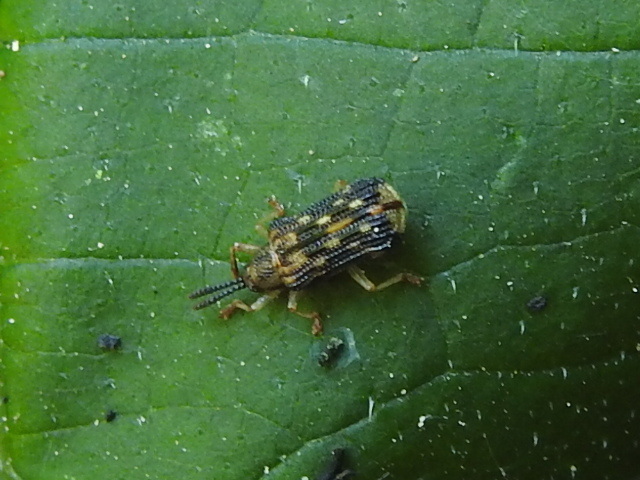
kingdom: Animalia
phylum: Arthropoda
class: Insecta
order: Coleoptera
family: Chrysomelidae
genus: Sumitrosis
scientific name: Sumitrosis inaequalis
